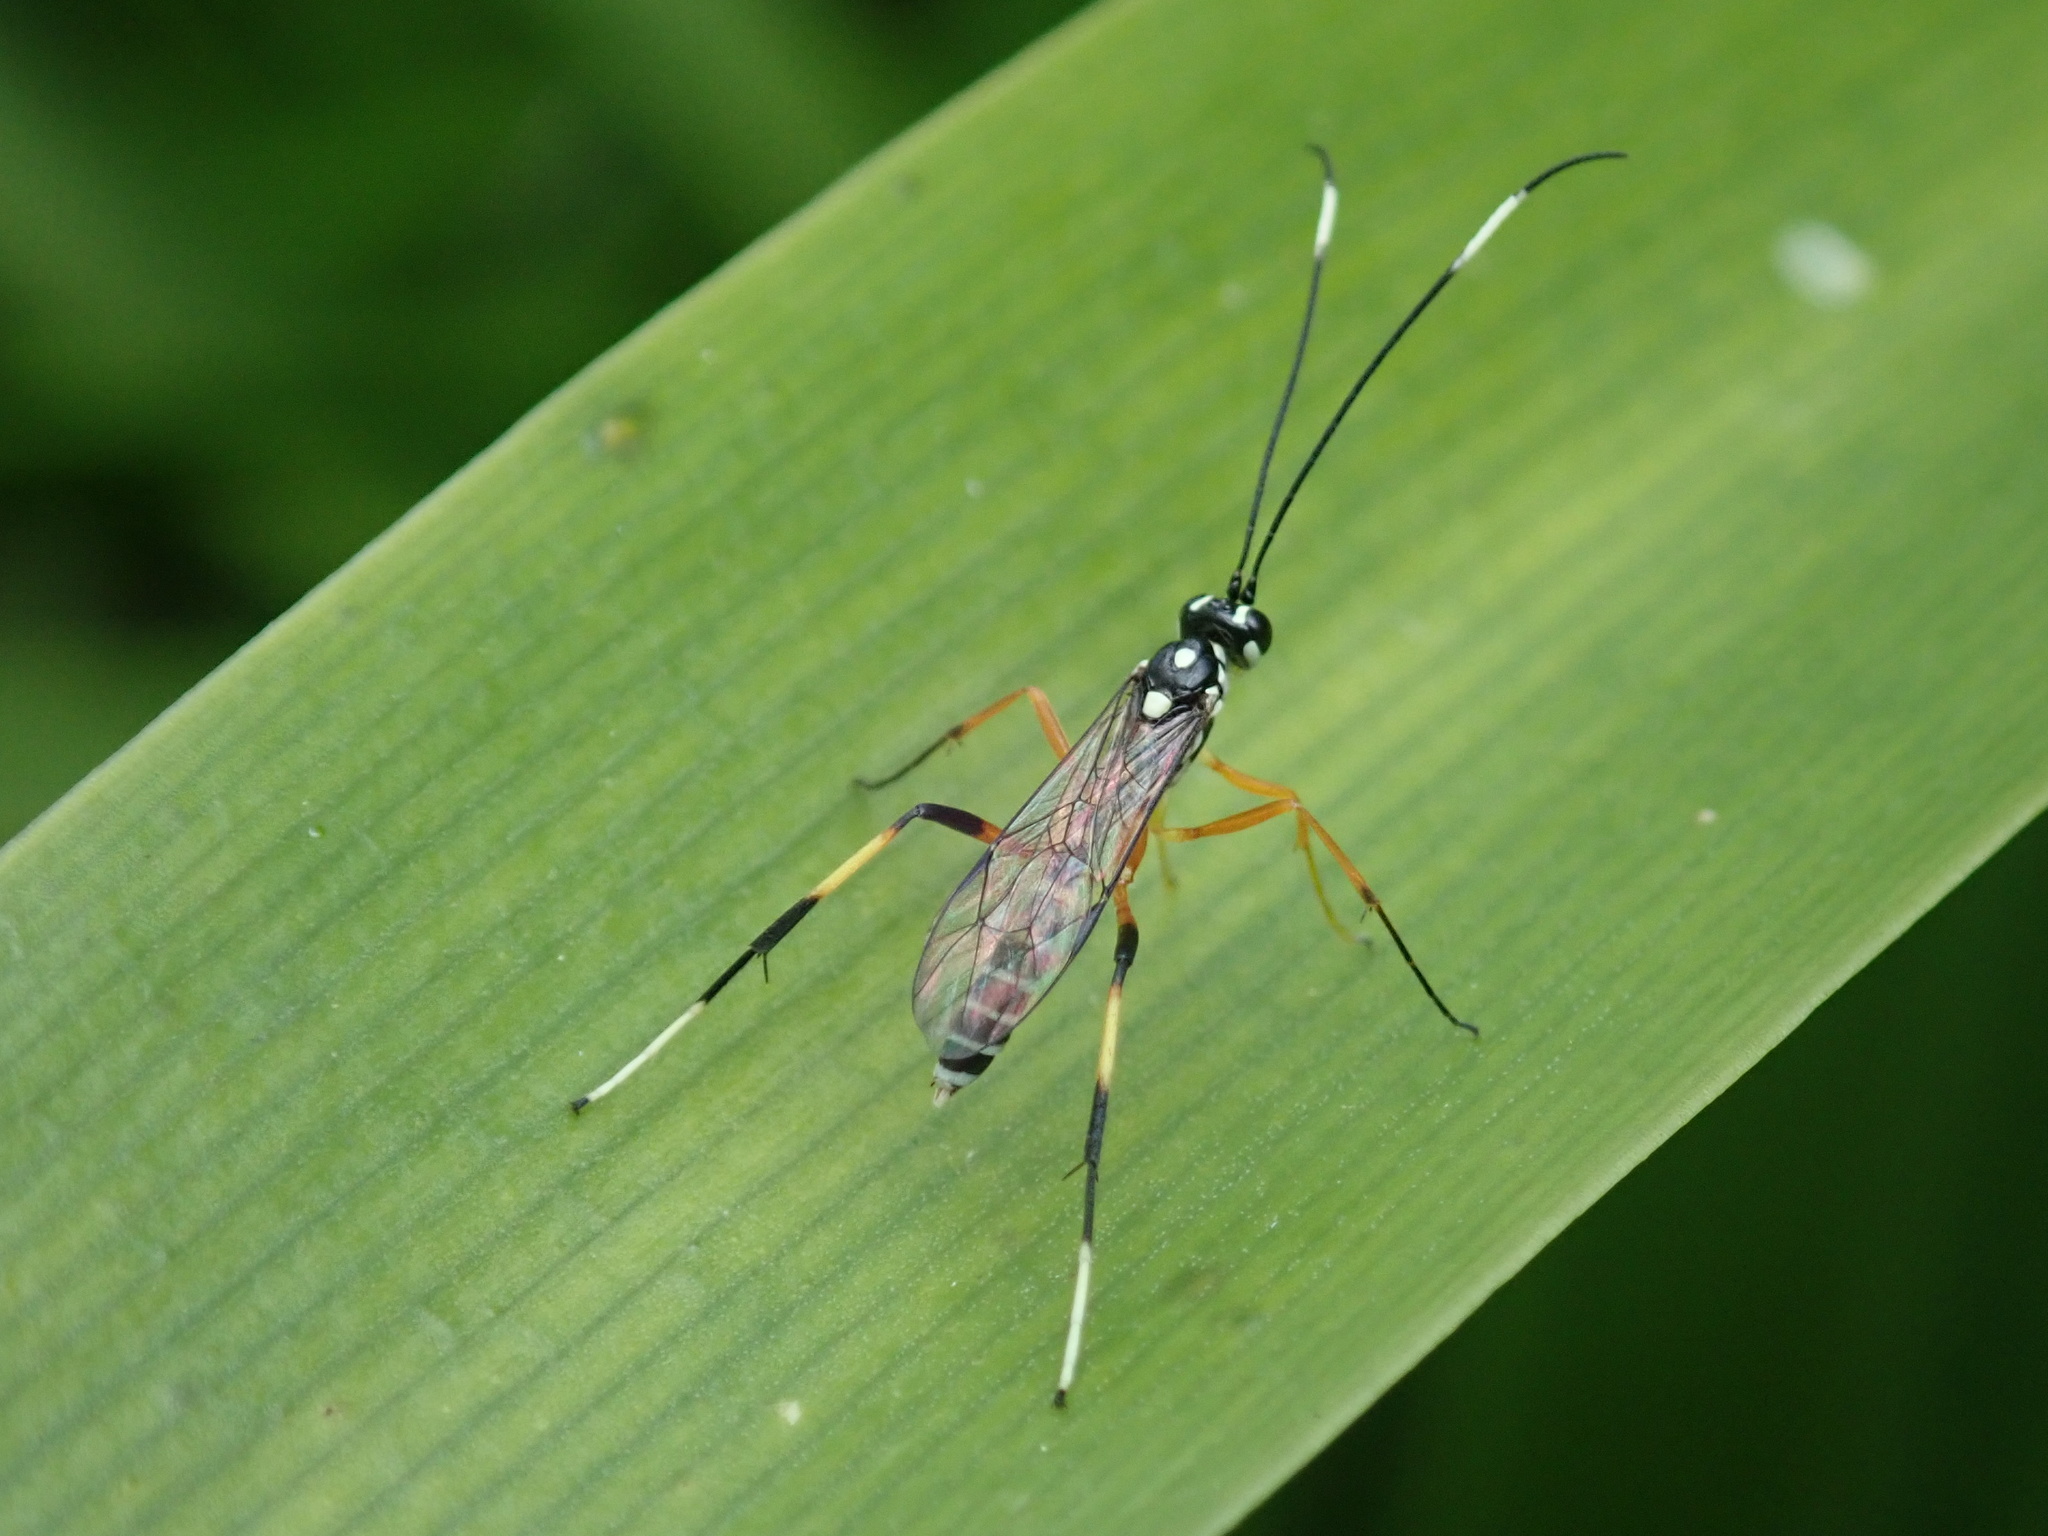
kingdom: Animalia
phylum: Arthropoda
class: Insecta
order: Hymenoptera
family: Ichneumonidae
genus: Xanthocryptus
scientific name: Xanthocryptus novozealandicus
